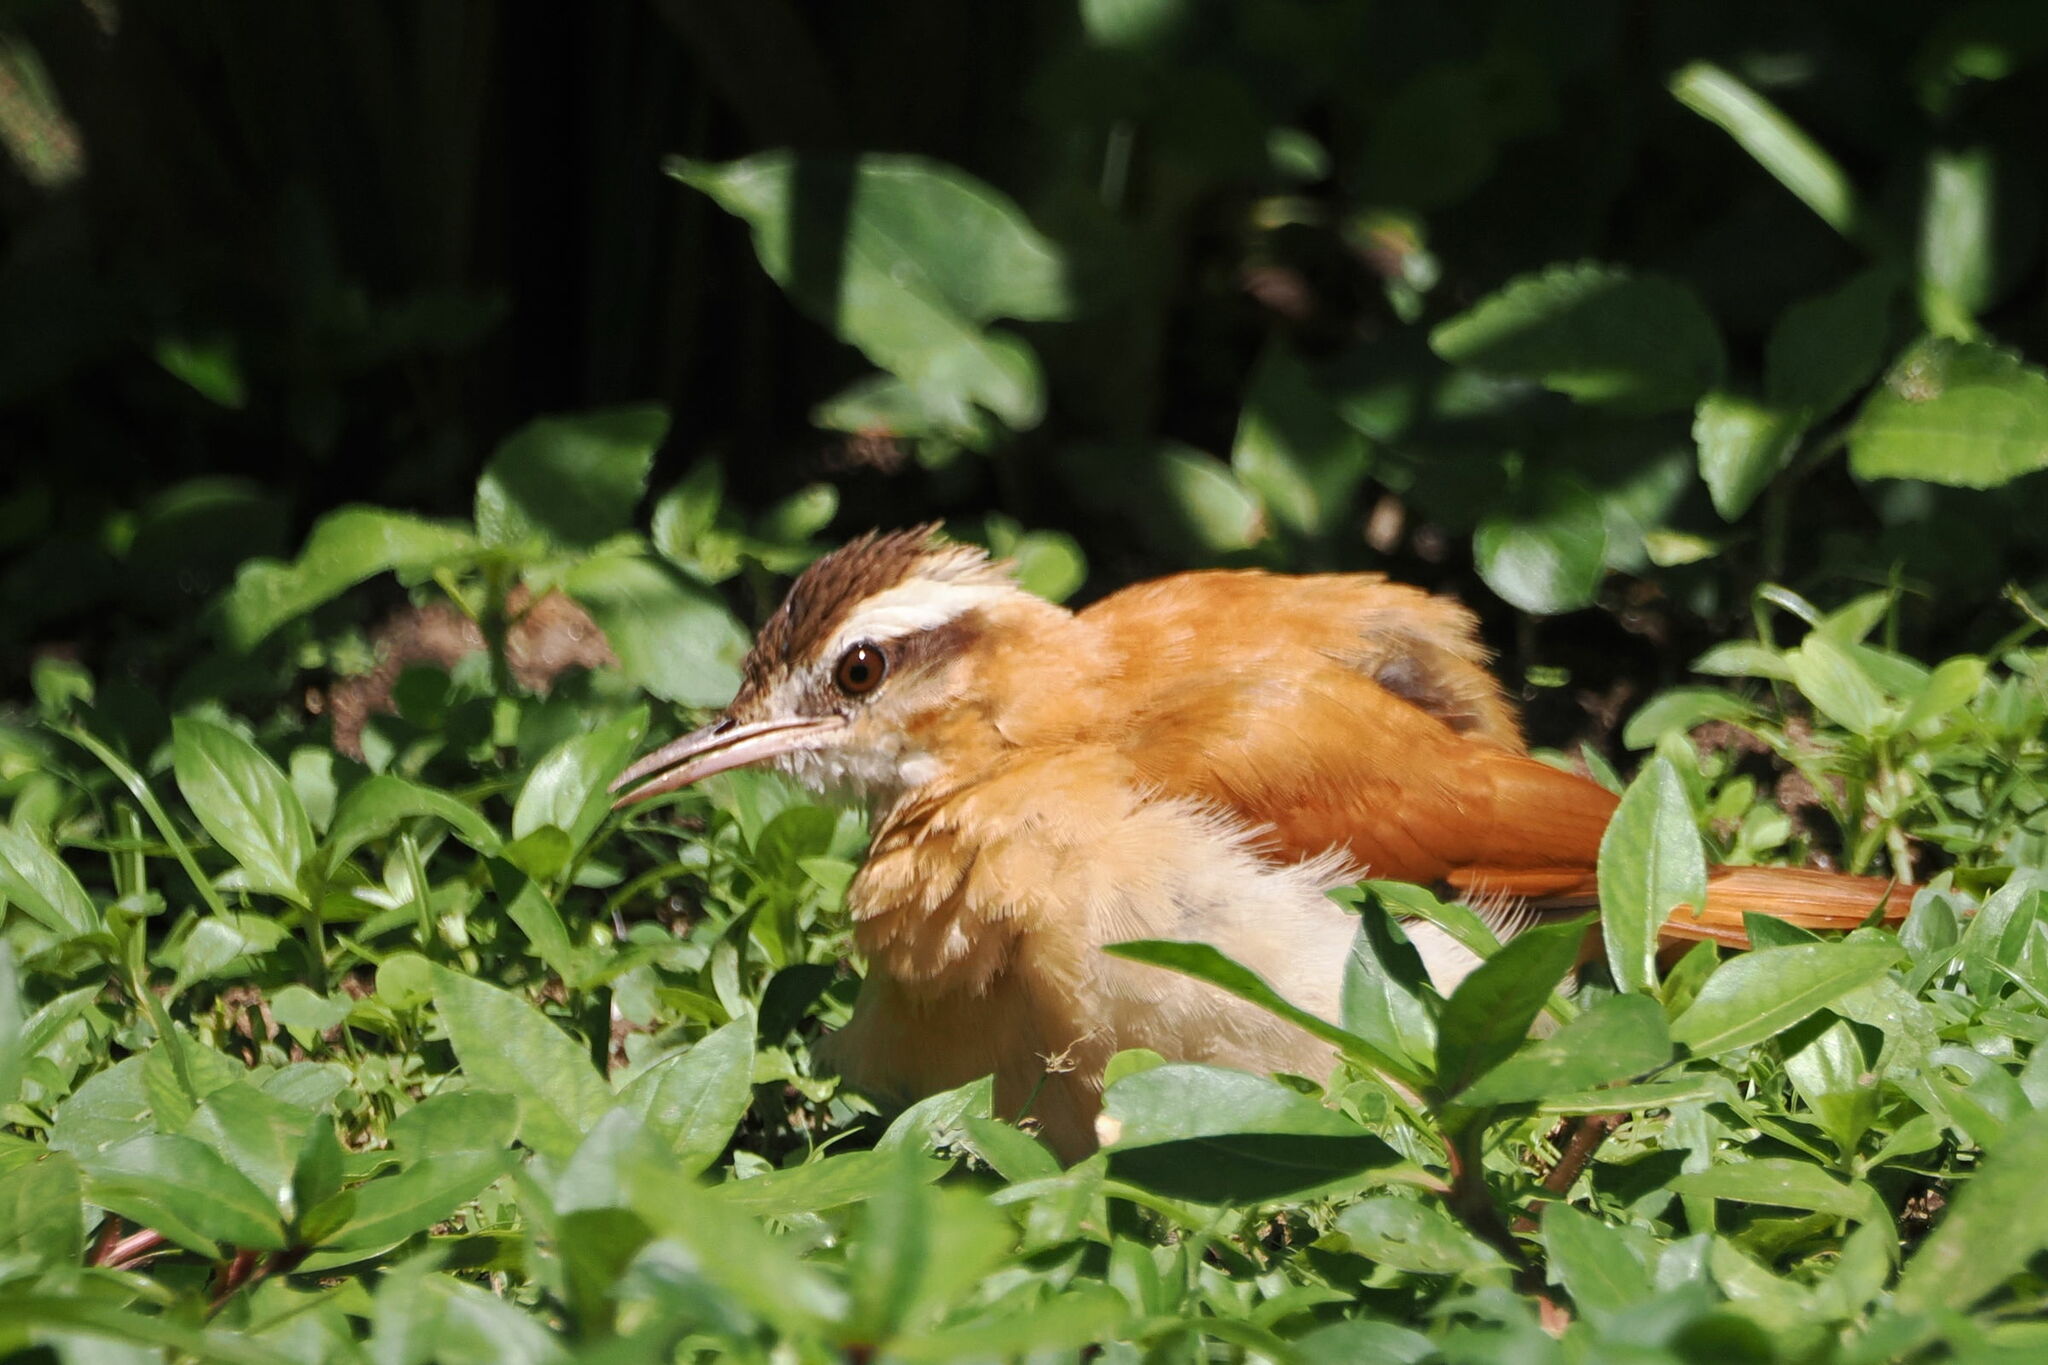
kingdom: Animalia
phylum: Chordata
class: Aves
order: Passeriformes
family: Furnariidae
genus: Furnarius
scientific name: Furnarius leucopus
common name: Pale-legged hornero
